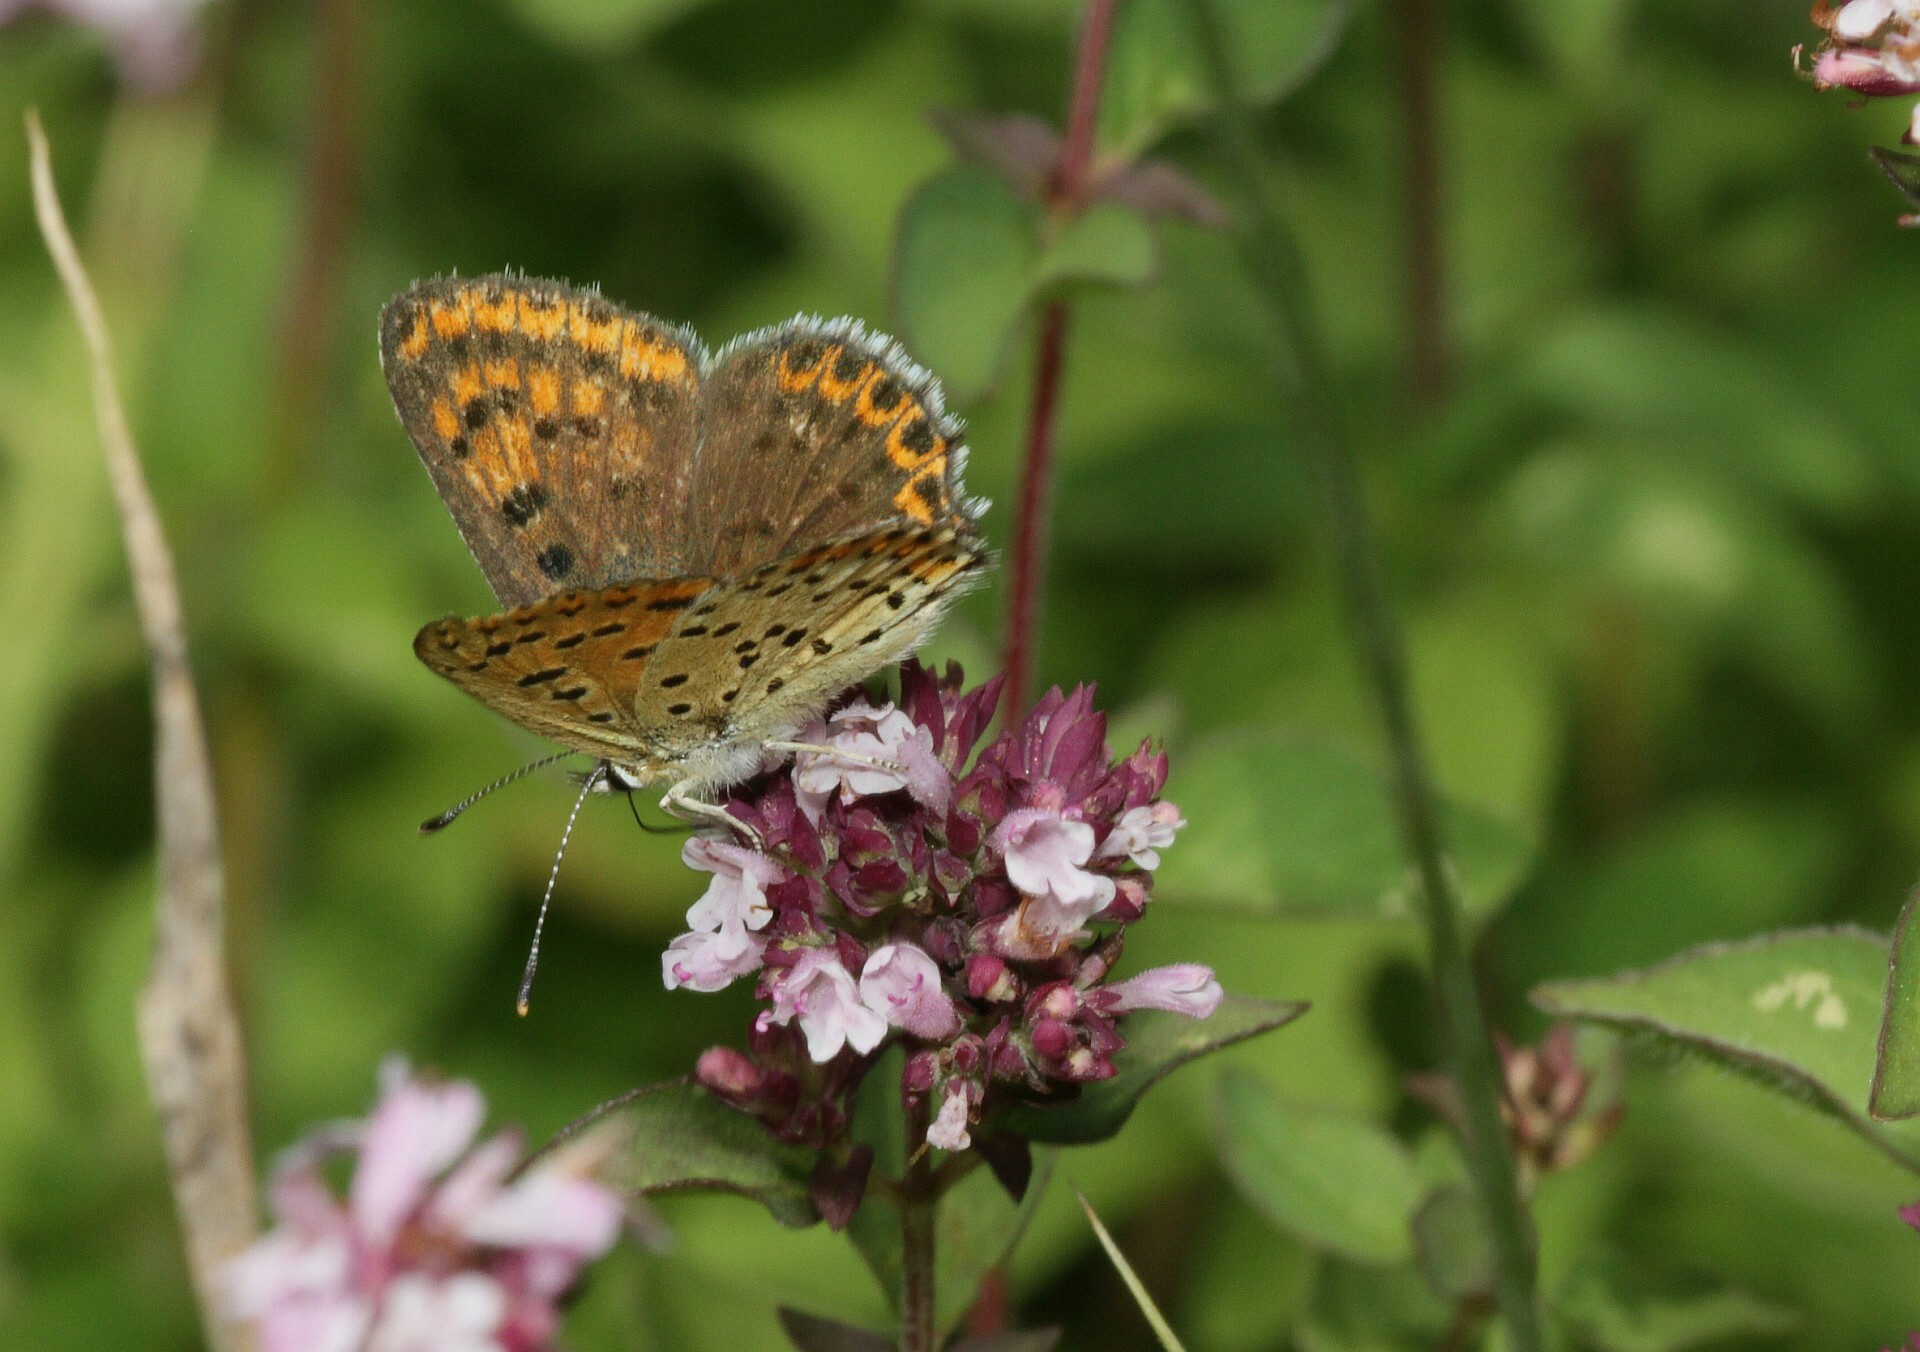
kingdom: Animalia
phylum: Arthropoda
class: Insecta
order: Lepidoptera
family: Lycaenidae
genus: Loweia
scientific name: Loweia tityrus
